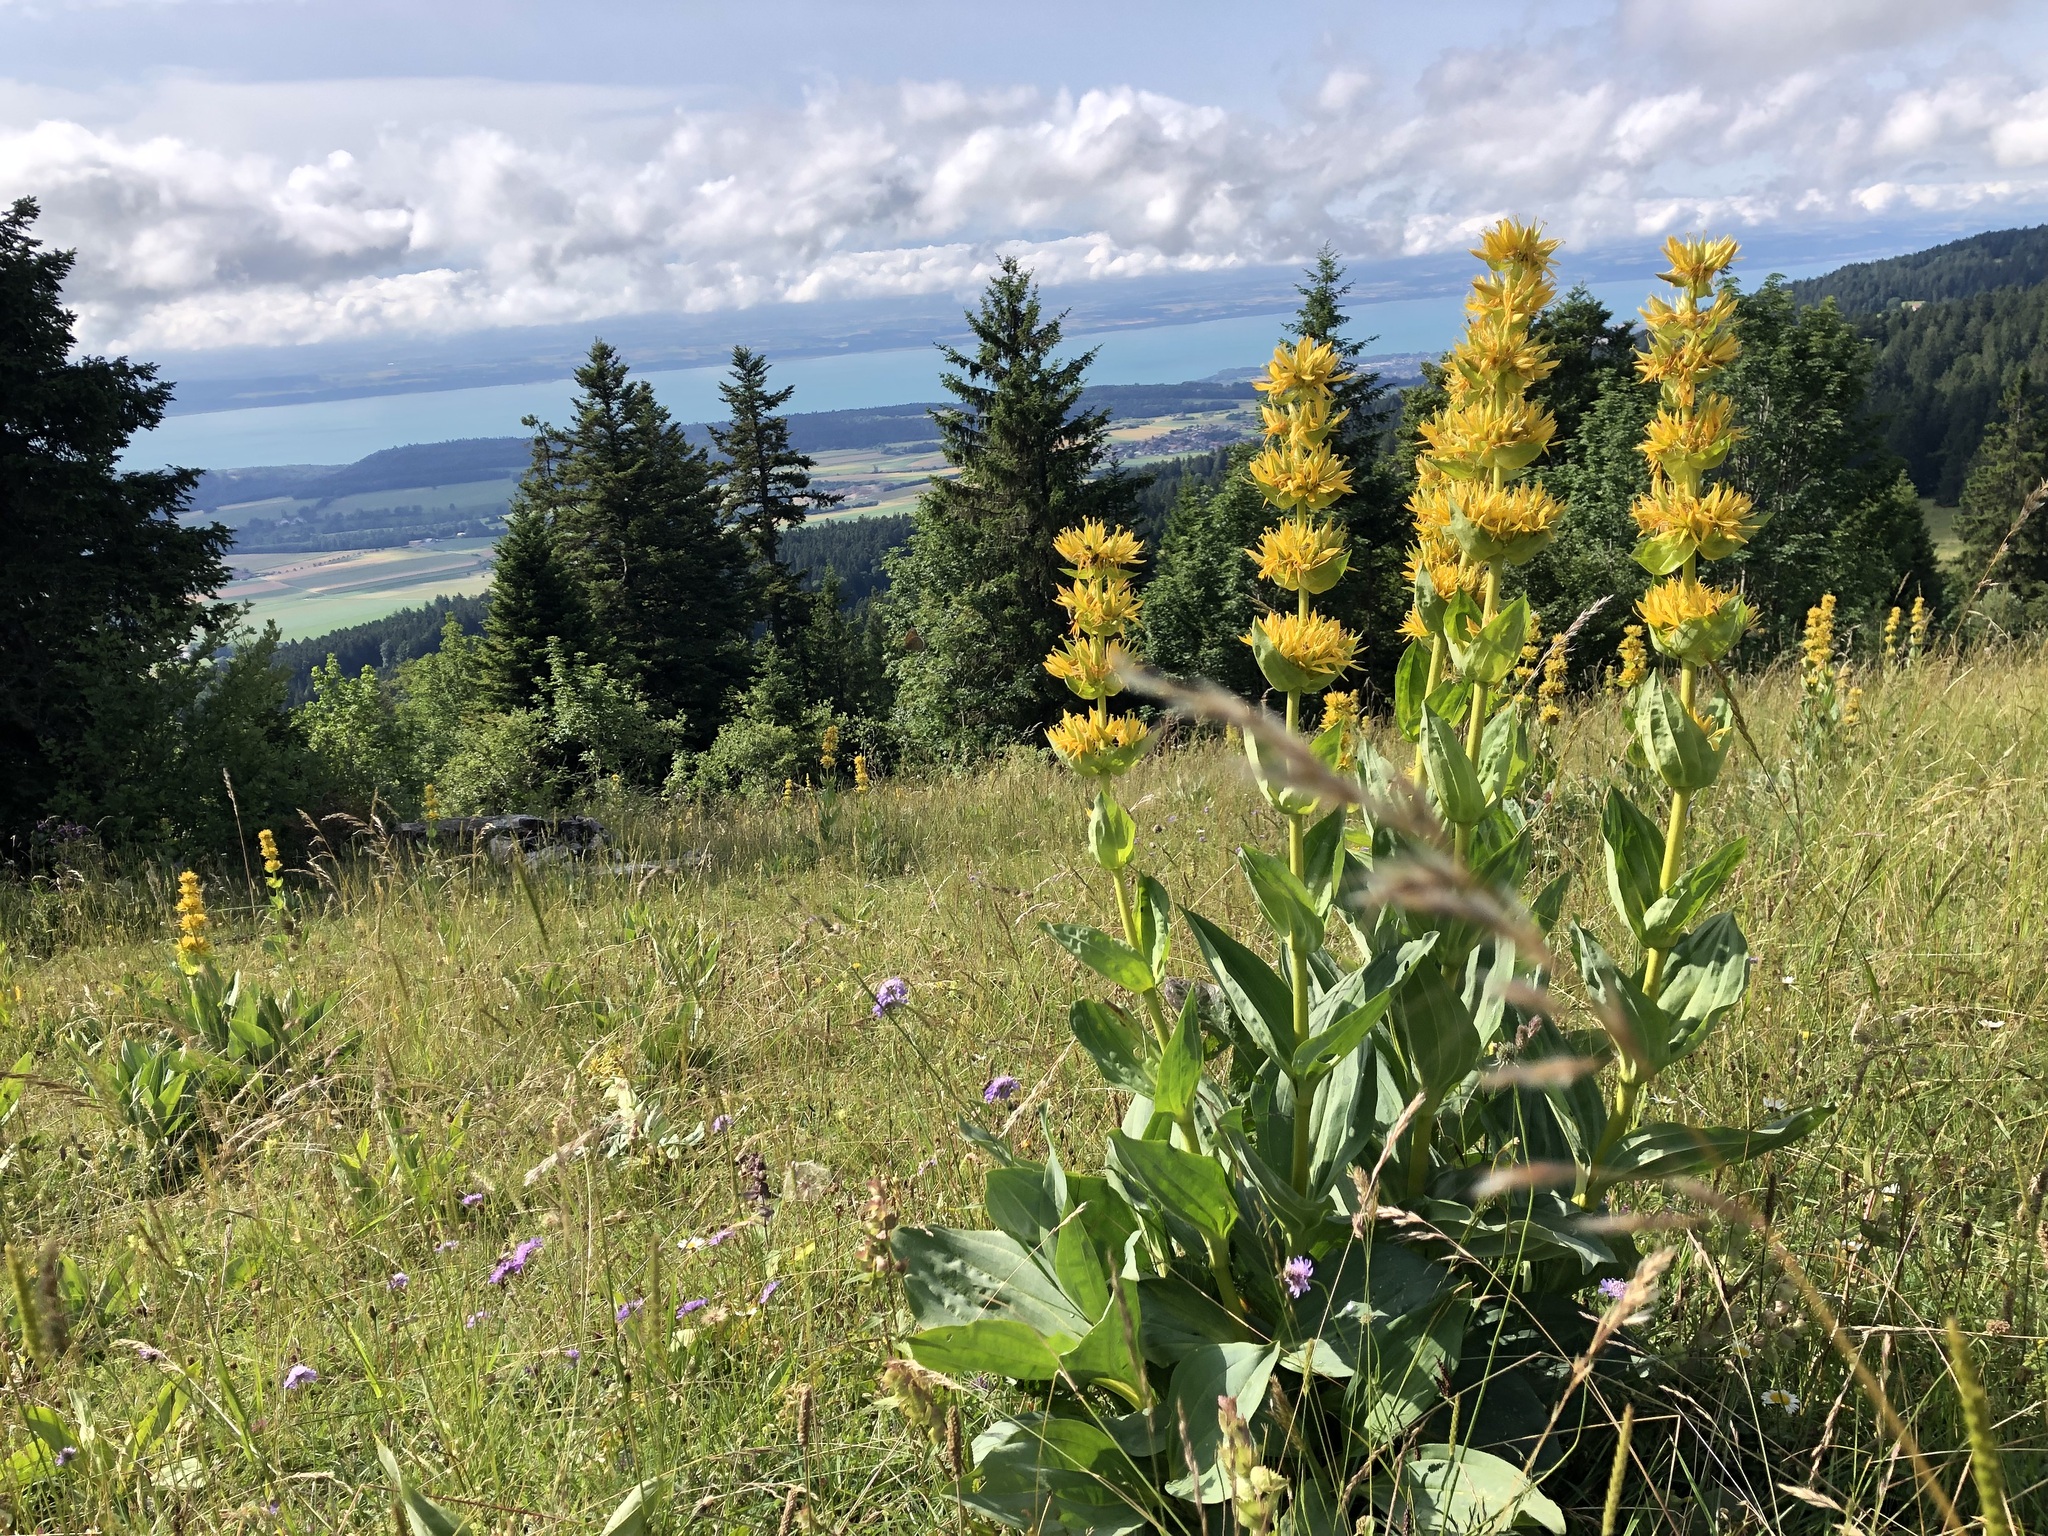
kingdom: Plantae
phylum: Tracheophyta
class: Magnoliopsida
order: Gentianales
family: Gentianaceae
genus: Gentiana
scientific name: Gentiana lutea
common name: Great yellow gentian
